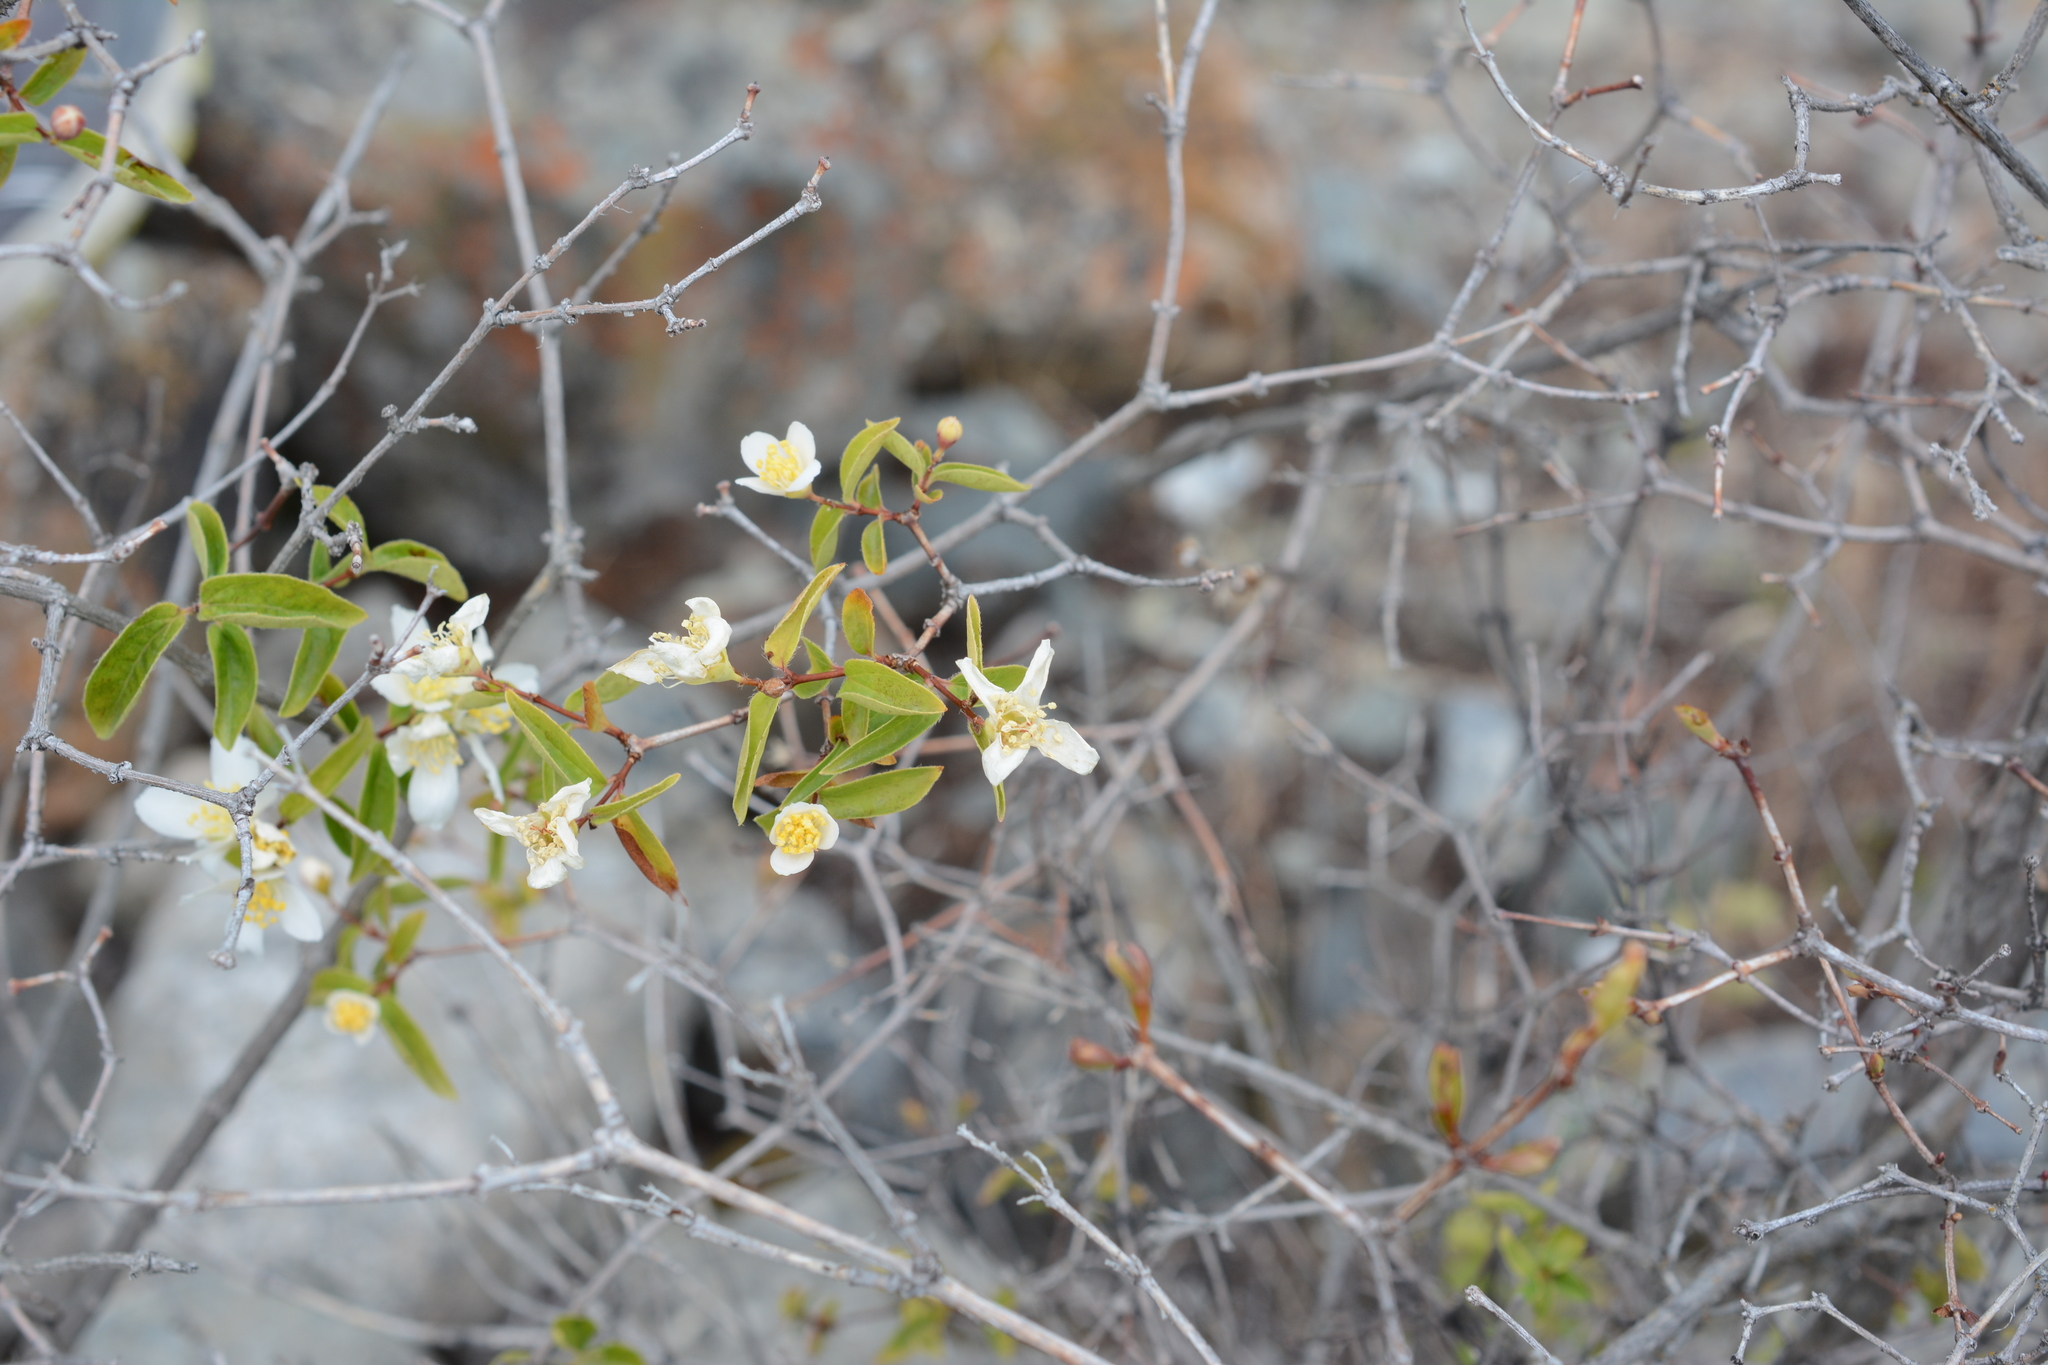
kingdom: Plantae
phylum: Tracheophyta
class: Magnoliopsida
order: Cornales
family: Hydrangeaceae
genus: Philadelphus
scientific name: Philadelphus lewisii
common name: Lewis's mock orange
